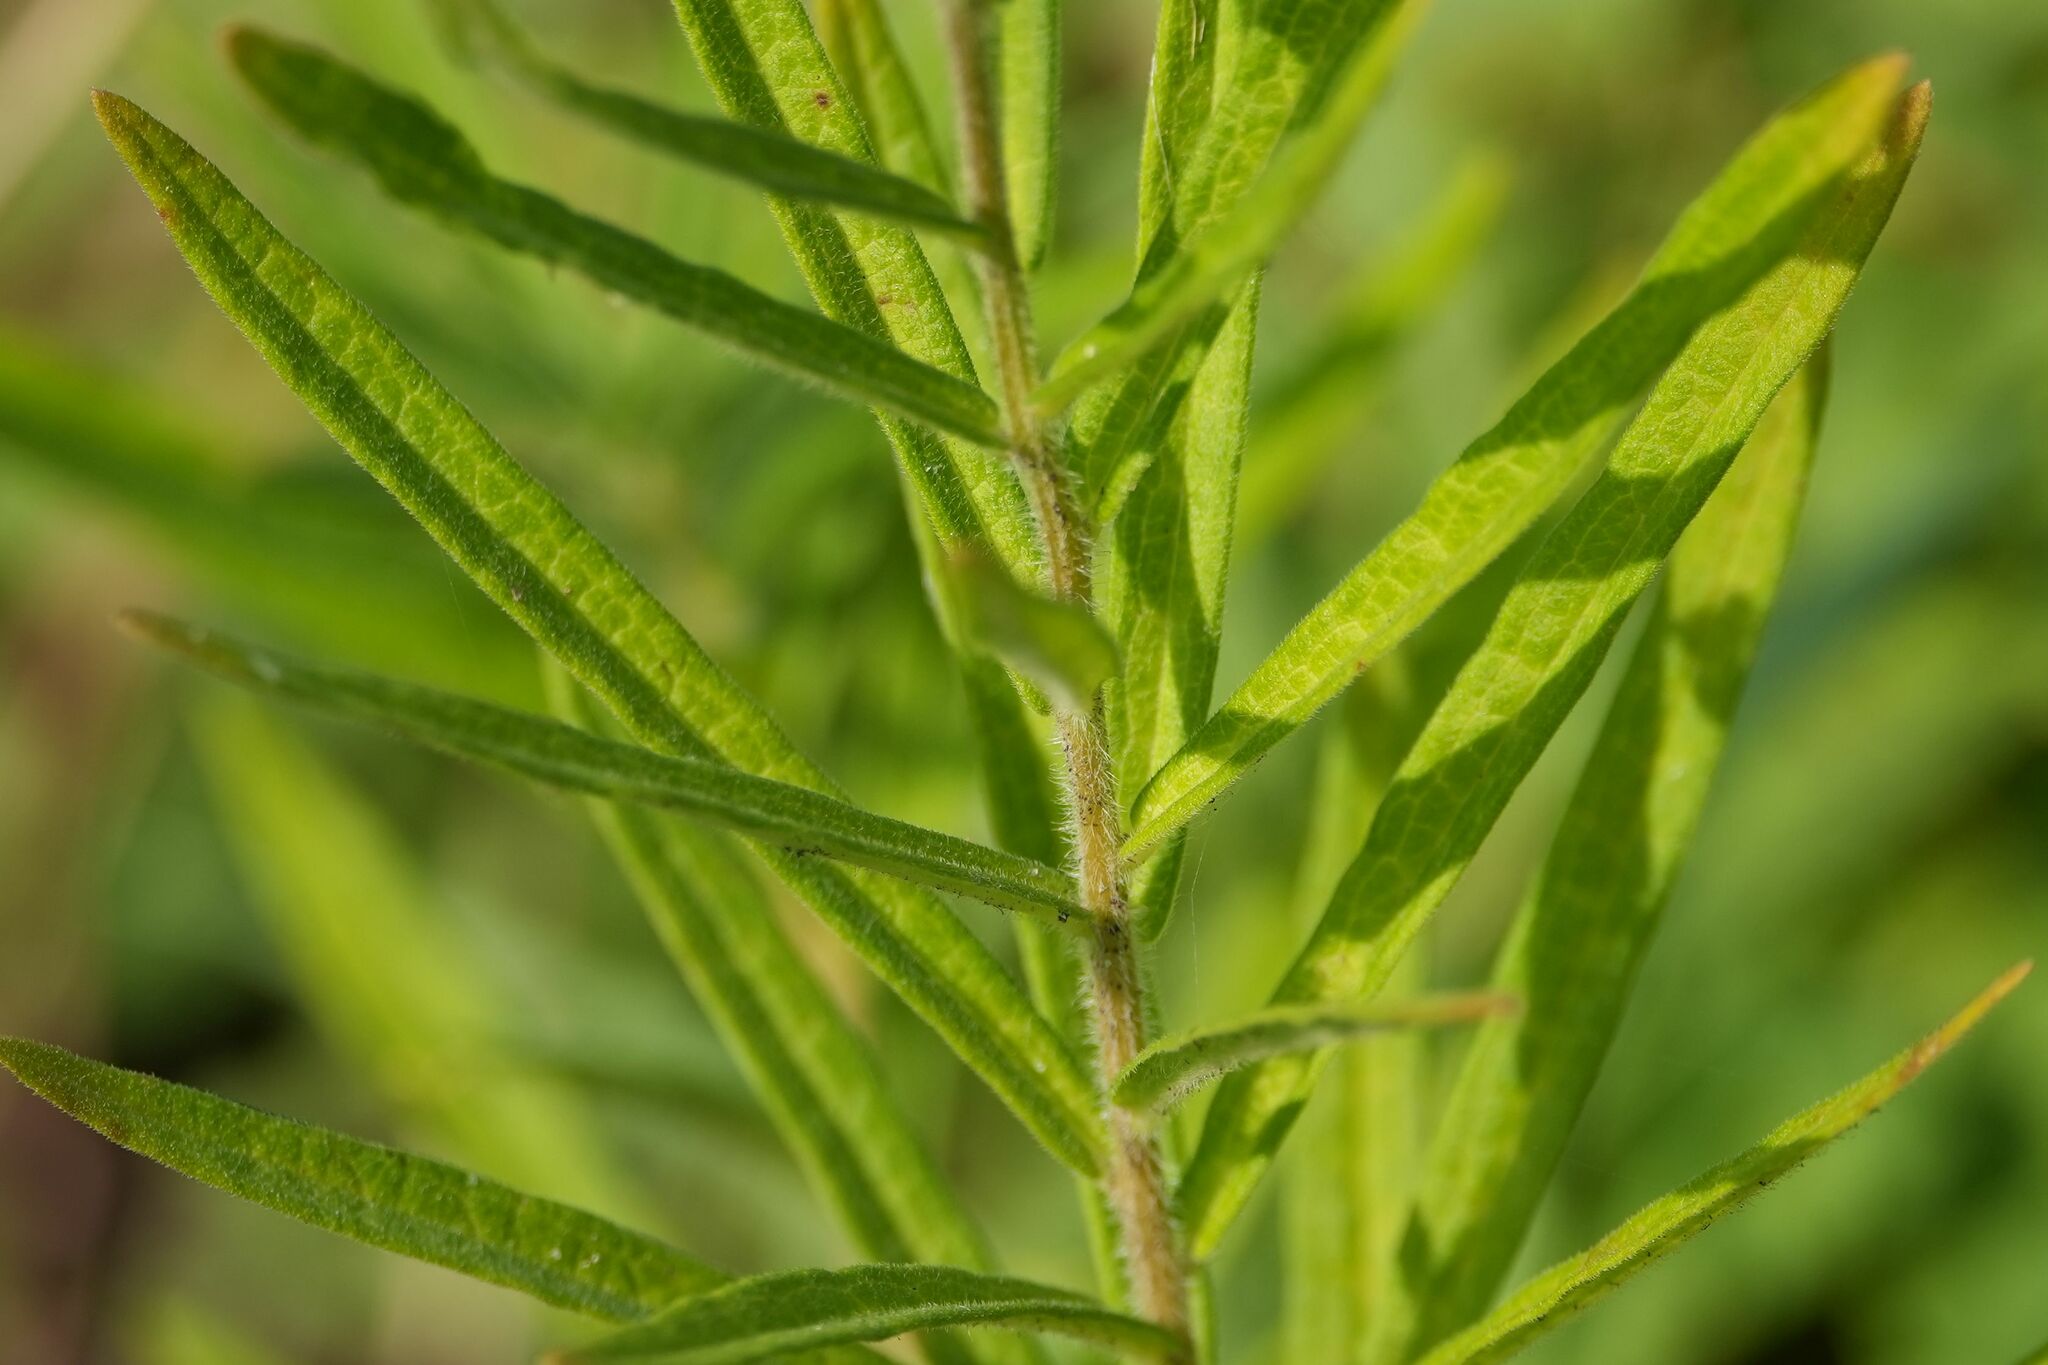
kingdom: Plantae
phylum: Tracheophyta
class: Magnoliopsida
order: Gentianales
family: Apocynaceae
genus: Asclepias
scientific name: Asclepias tuberosa
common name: Butterfly milkweed
